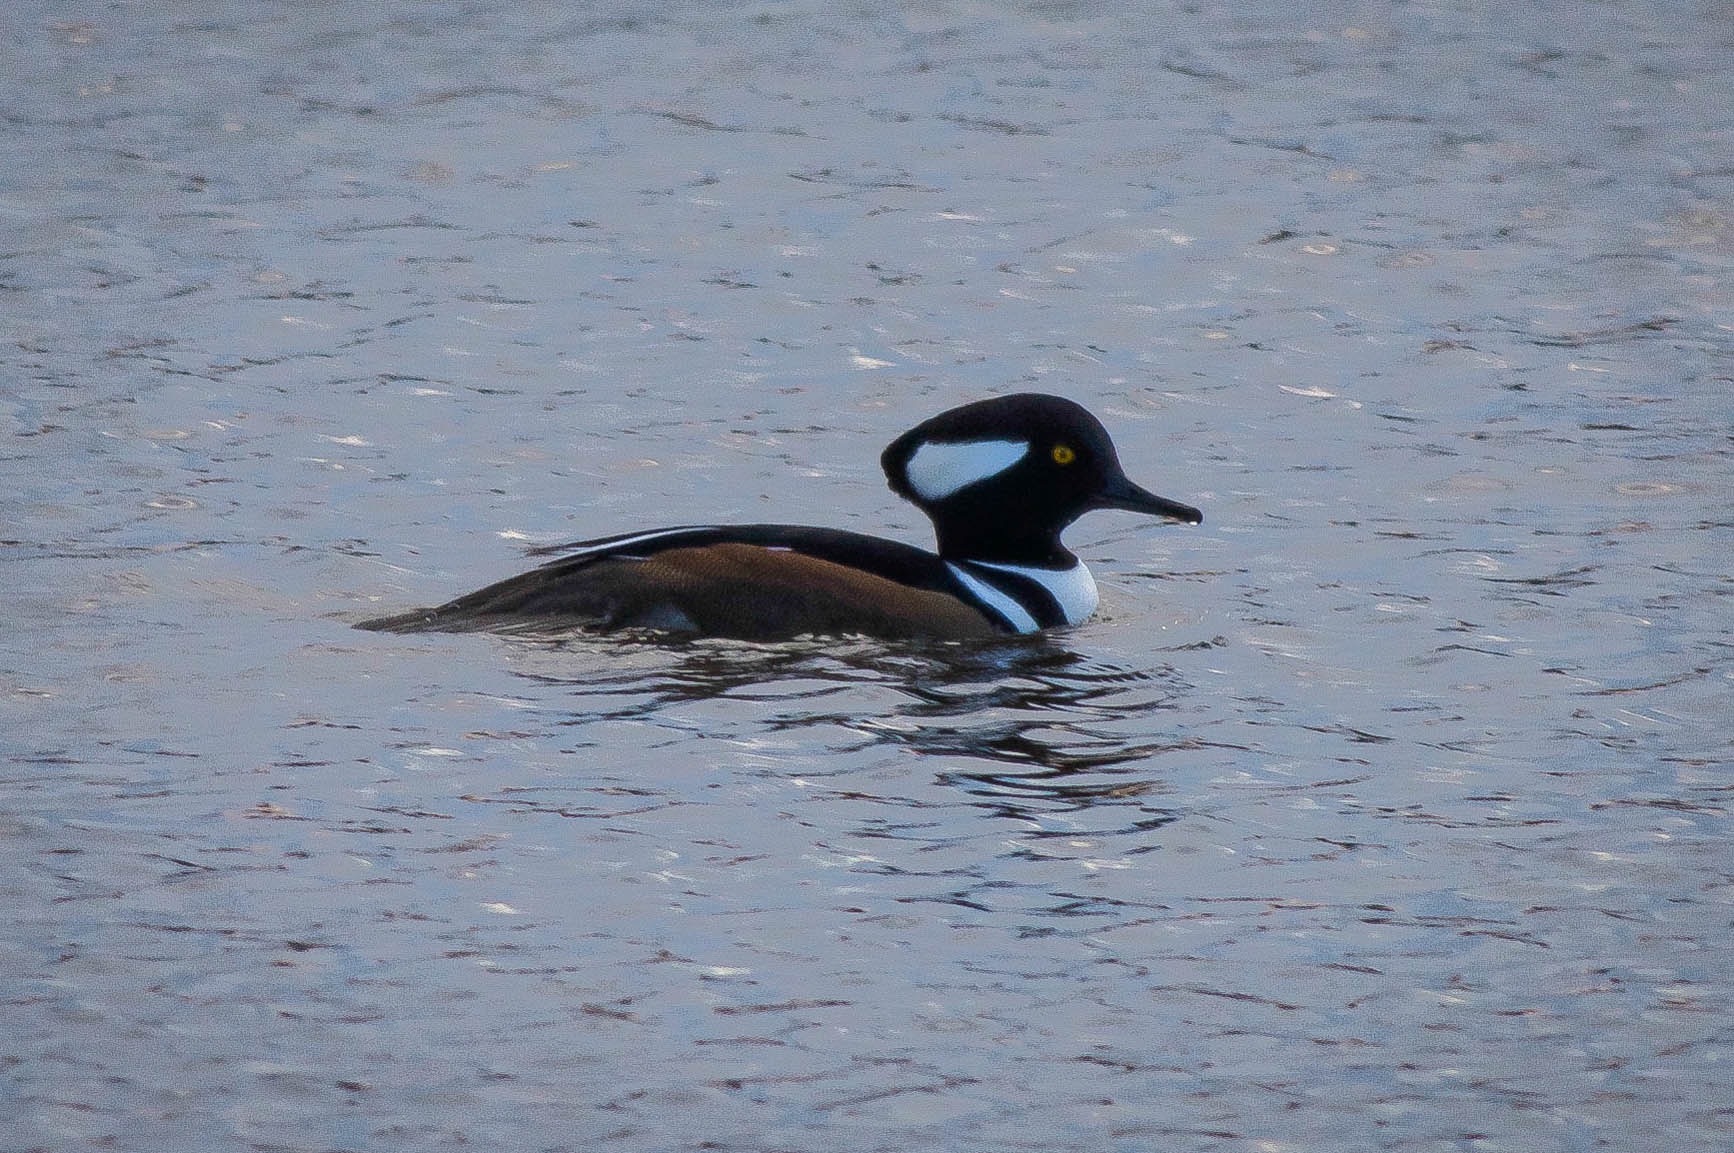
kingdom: Animalia
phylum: Chordata
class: Aves
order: Anseriformes
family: Anatidae
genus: Lophodytes
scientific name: Lophodytes cucullatus
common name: Hooded merganser
